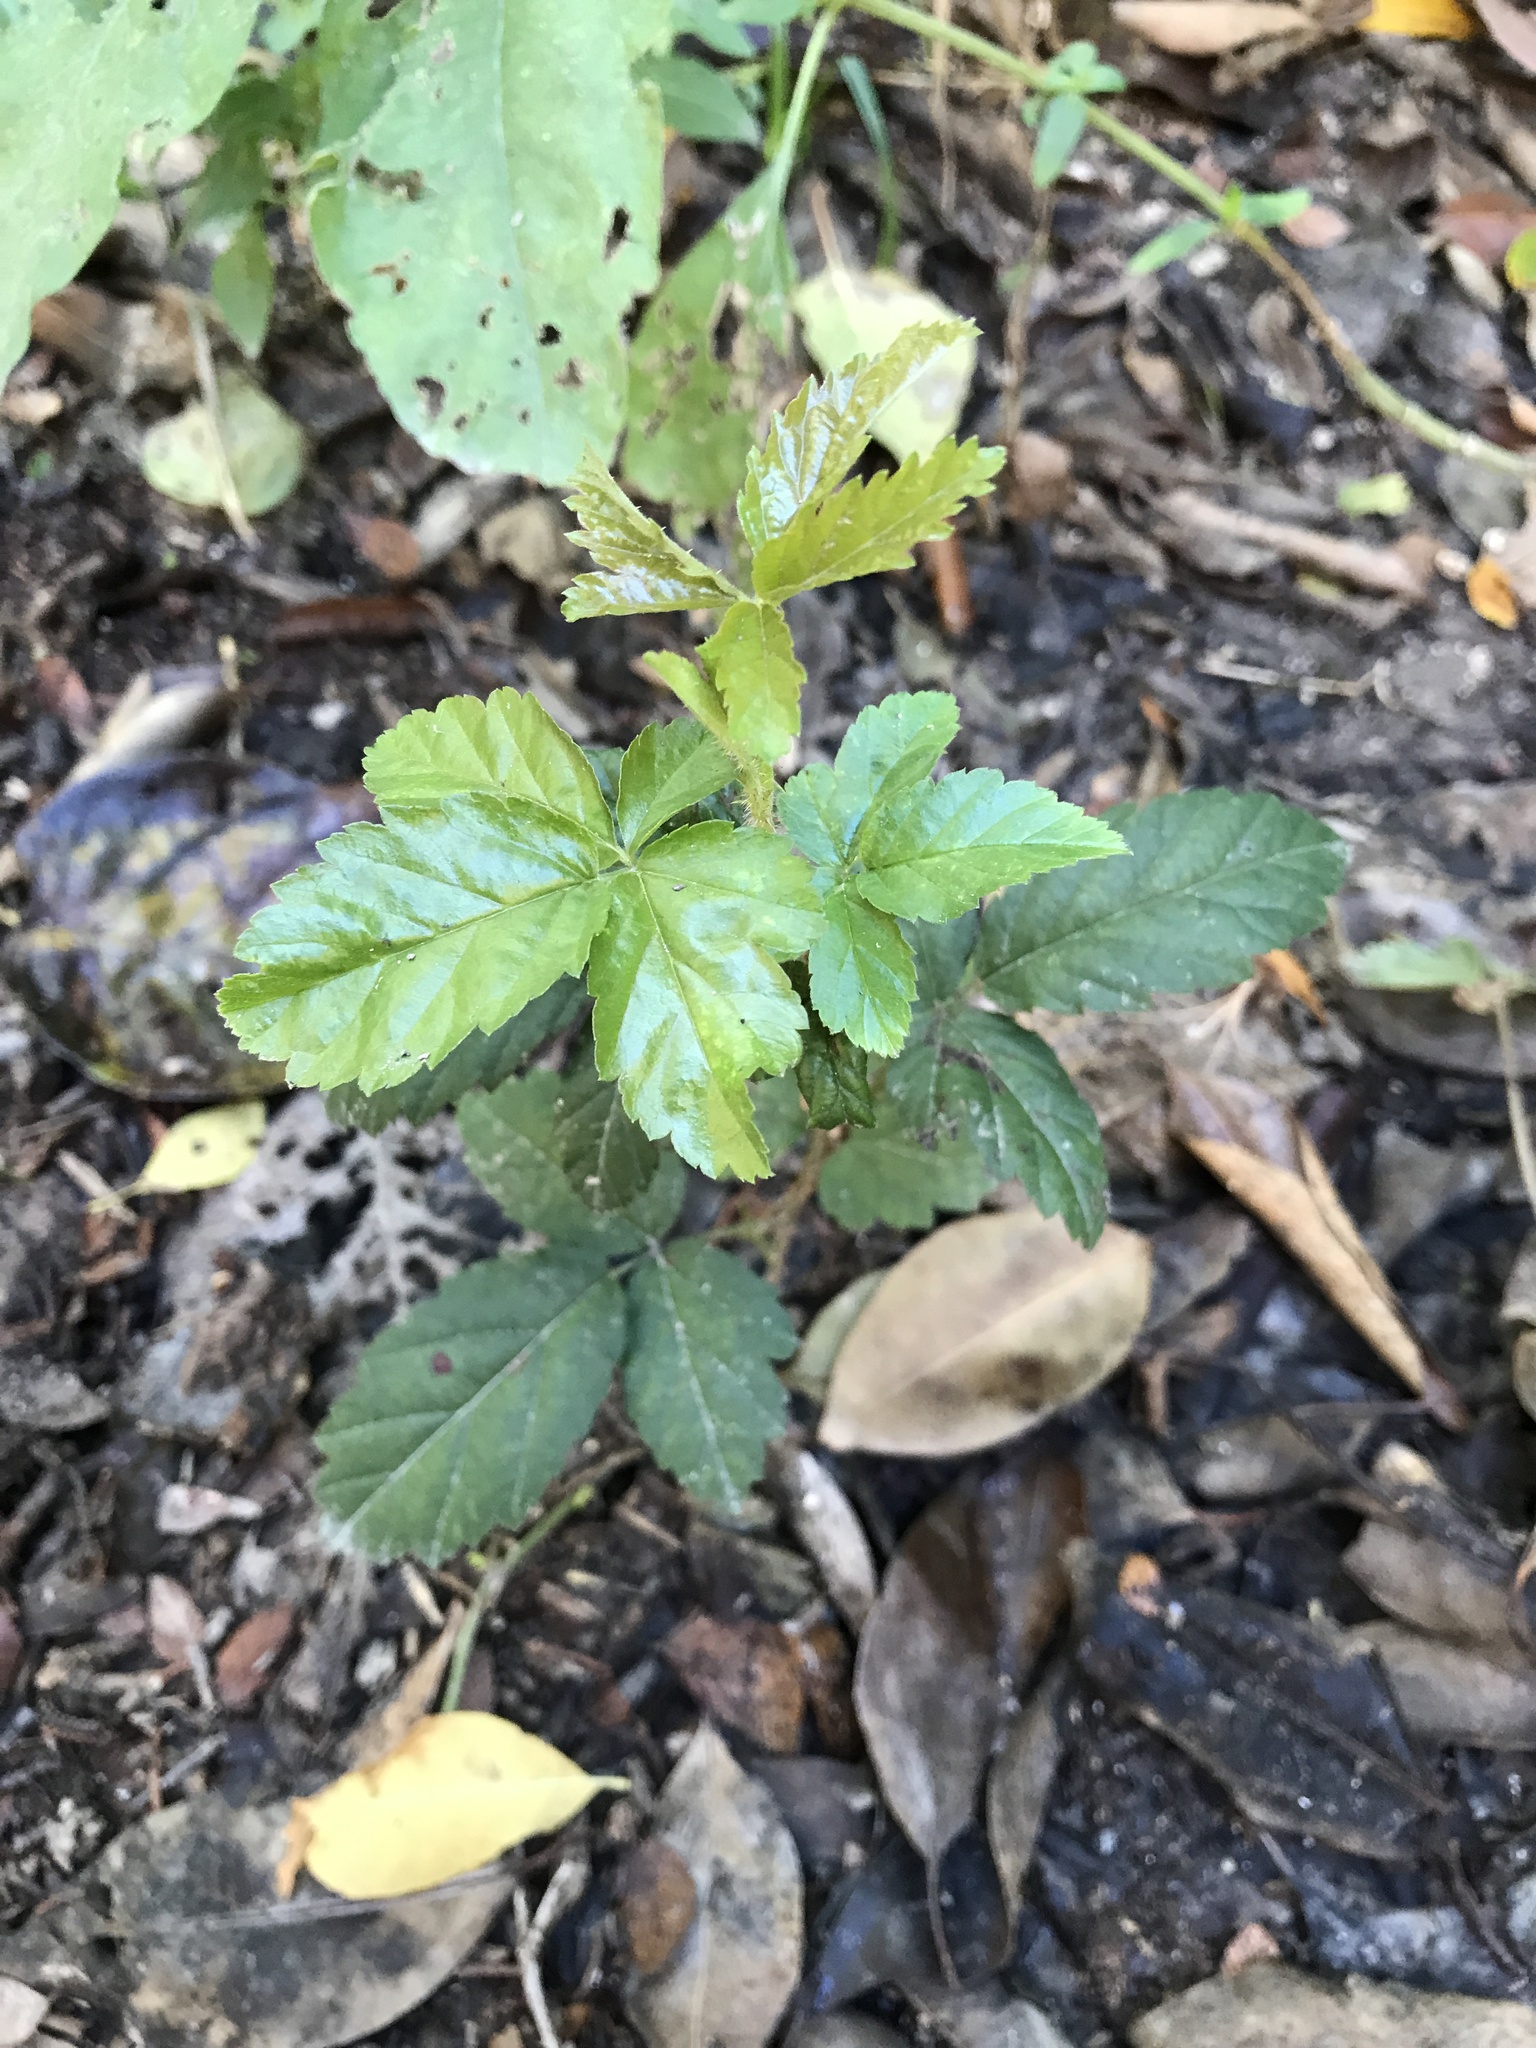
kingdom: Plantae
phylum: Tracheophyta
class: Magnoliopsida
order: Rosales
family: Rosaceae
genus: Rubus
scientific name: Rubus trivialis
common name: Southern dewberry
